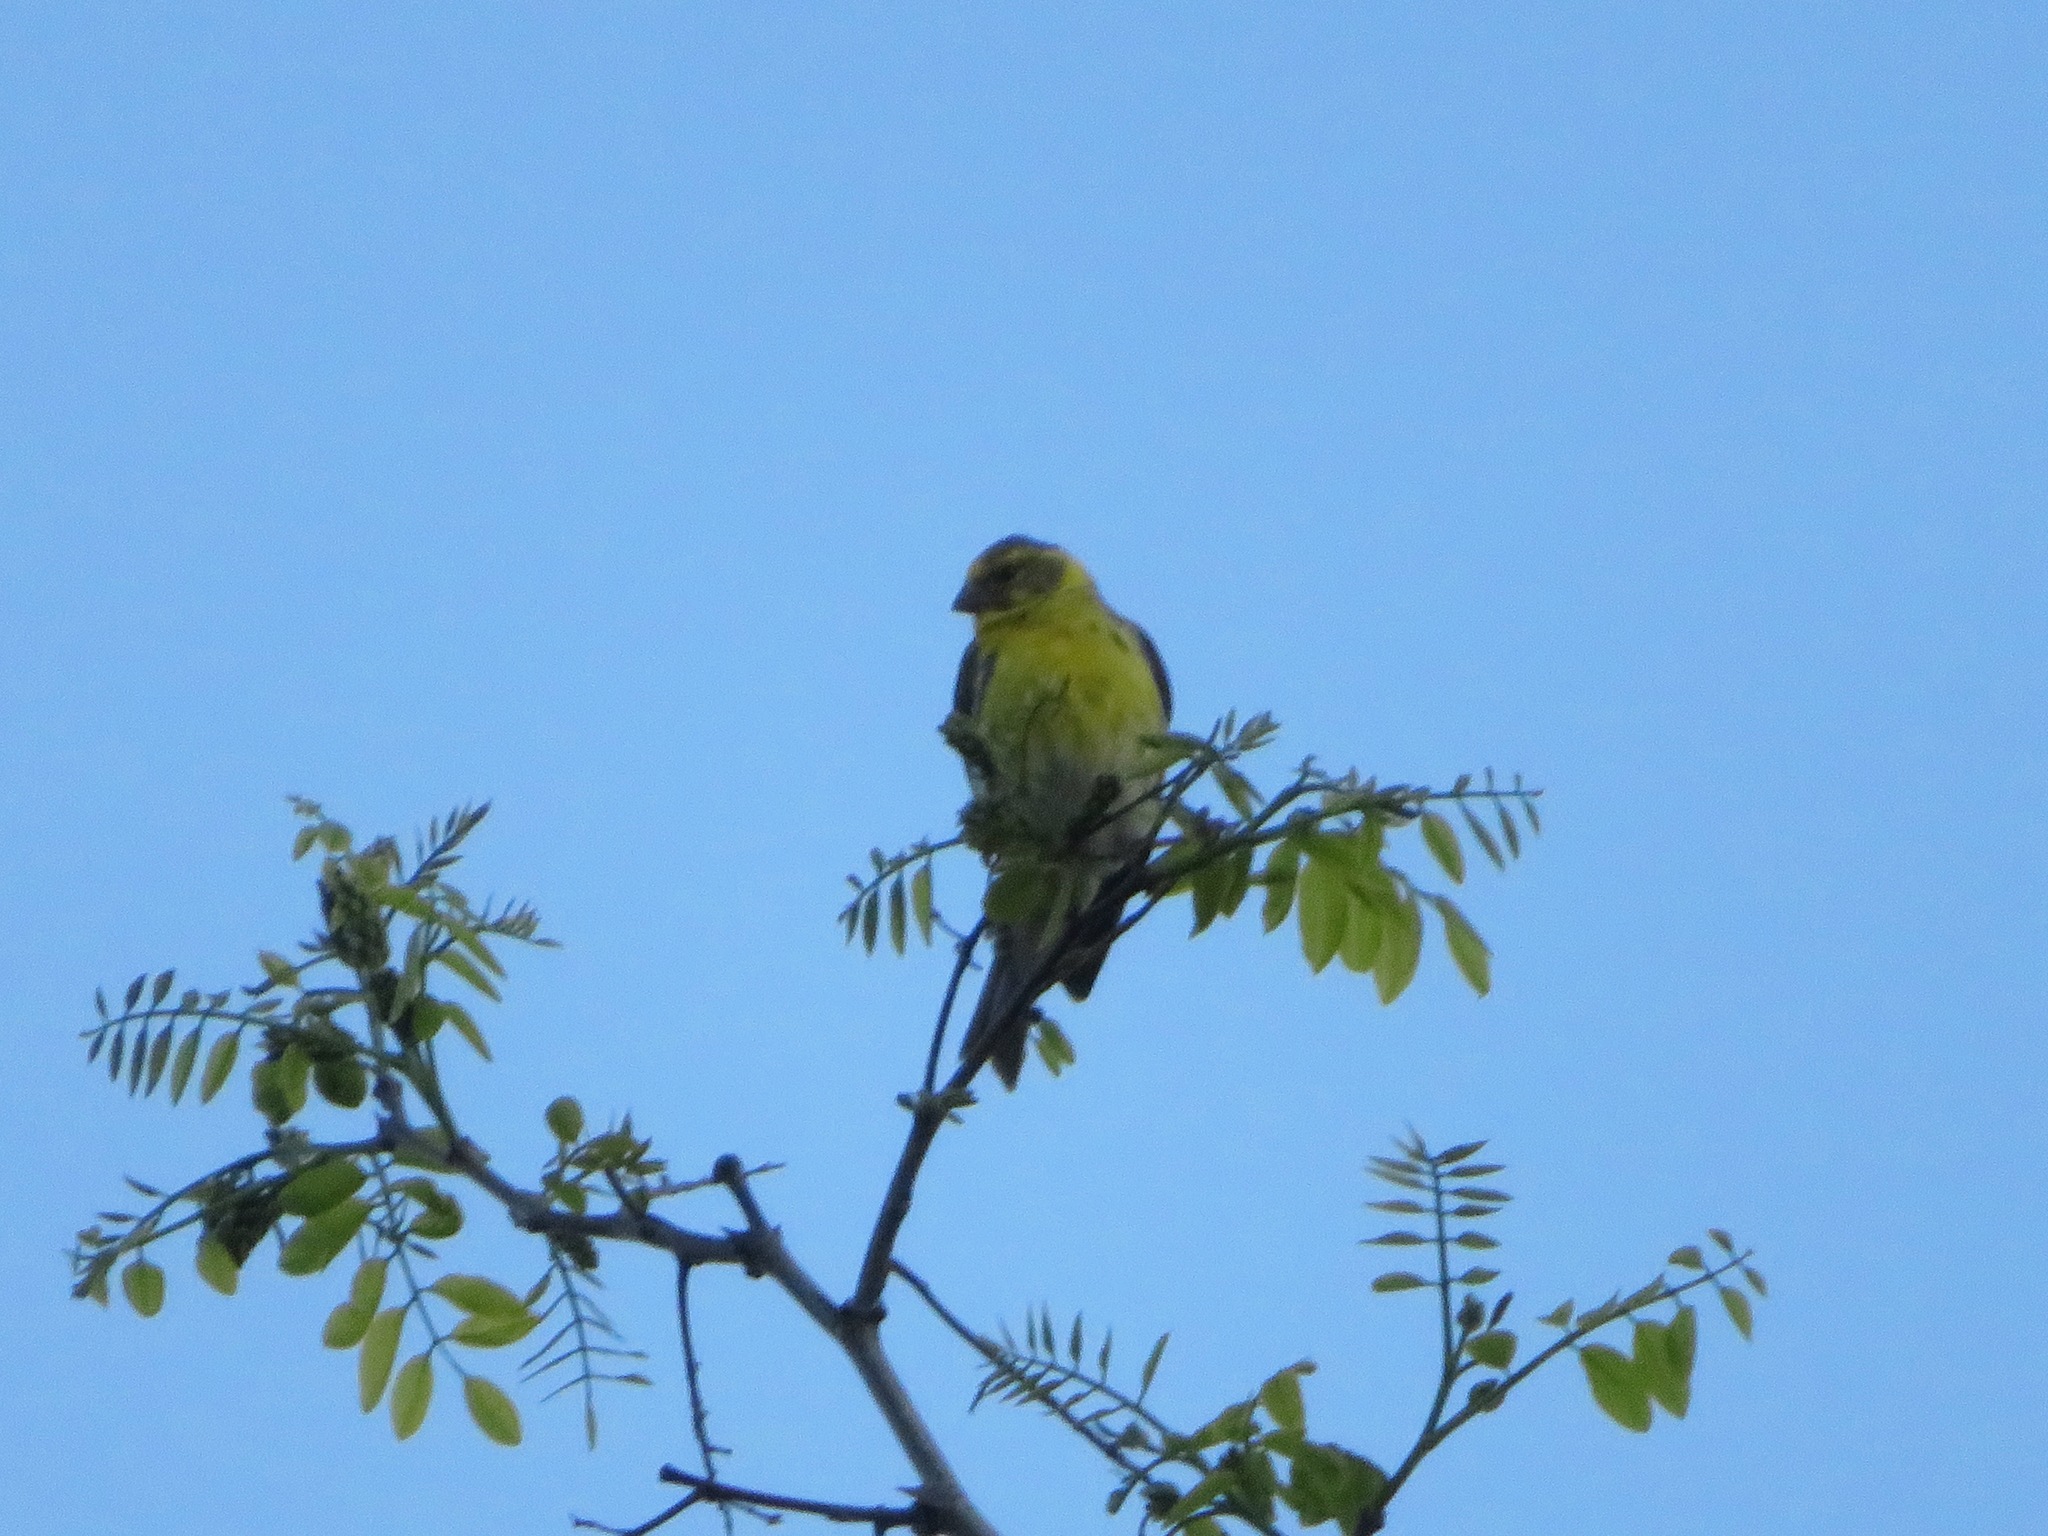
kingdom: Animalia
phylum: Chordata
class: Aves
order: Passeriformes
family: Fringillidae
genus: Serinus
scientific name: Serinus serinus
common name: European serin
